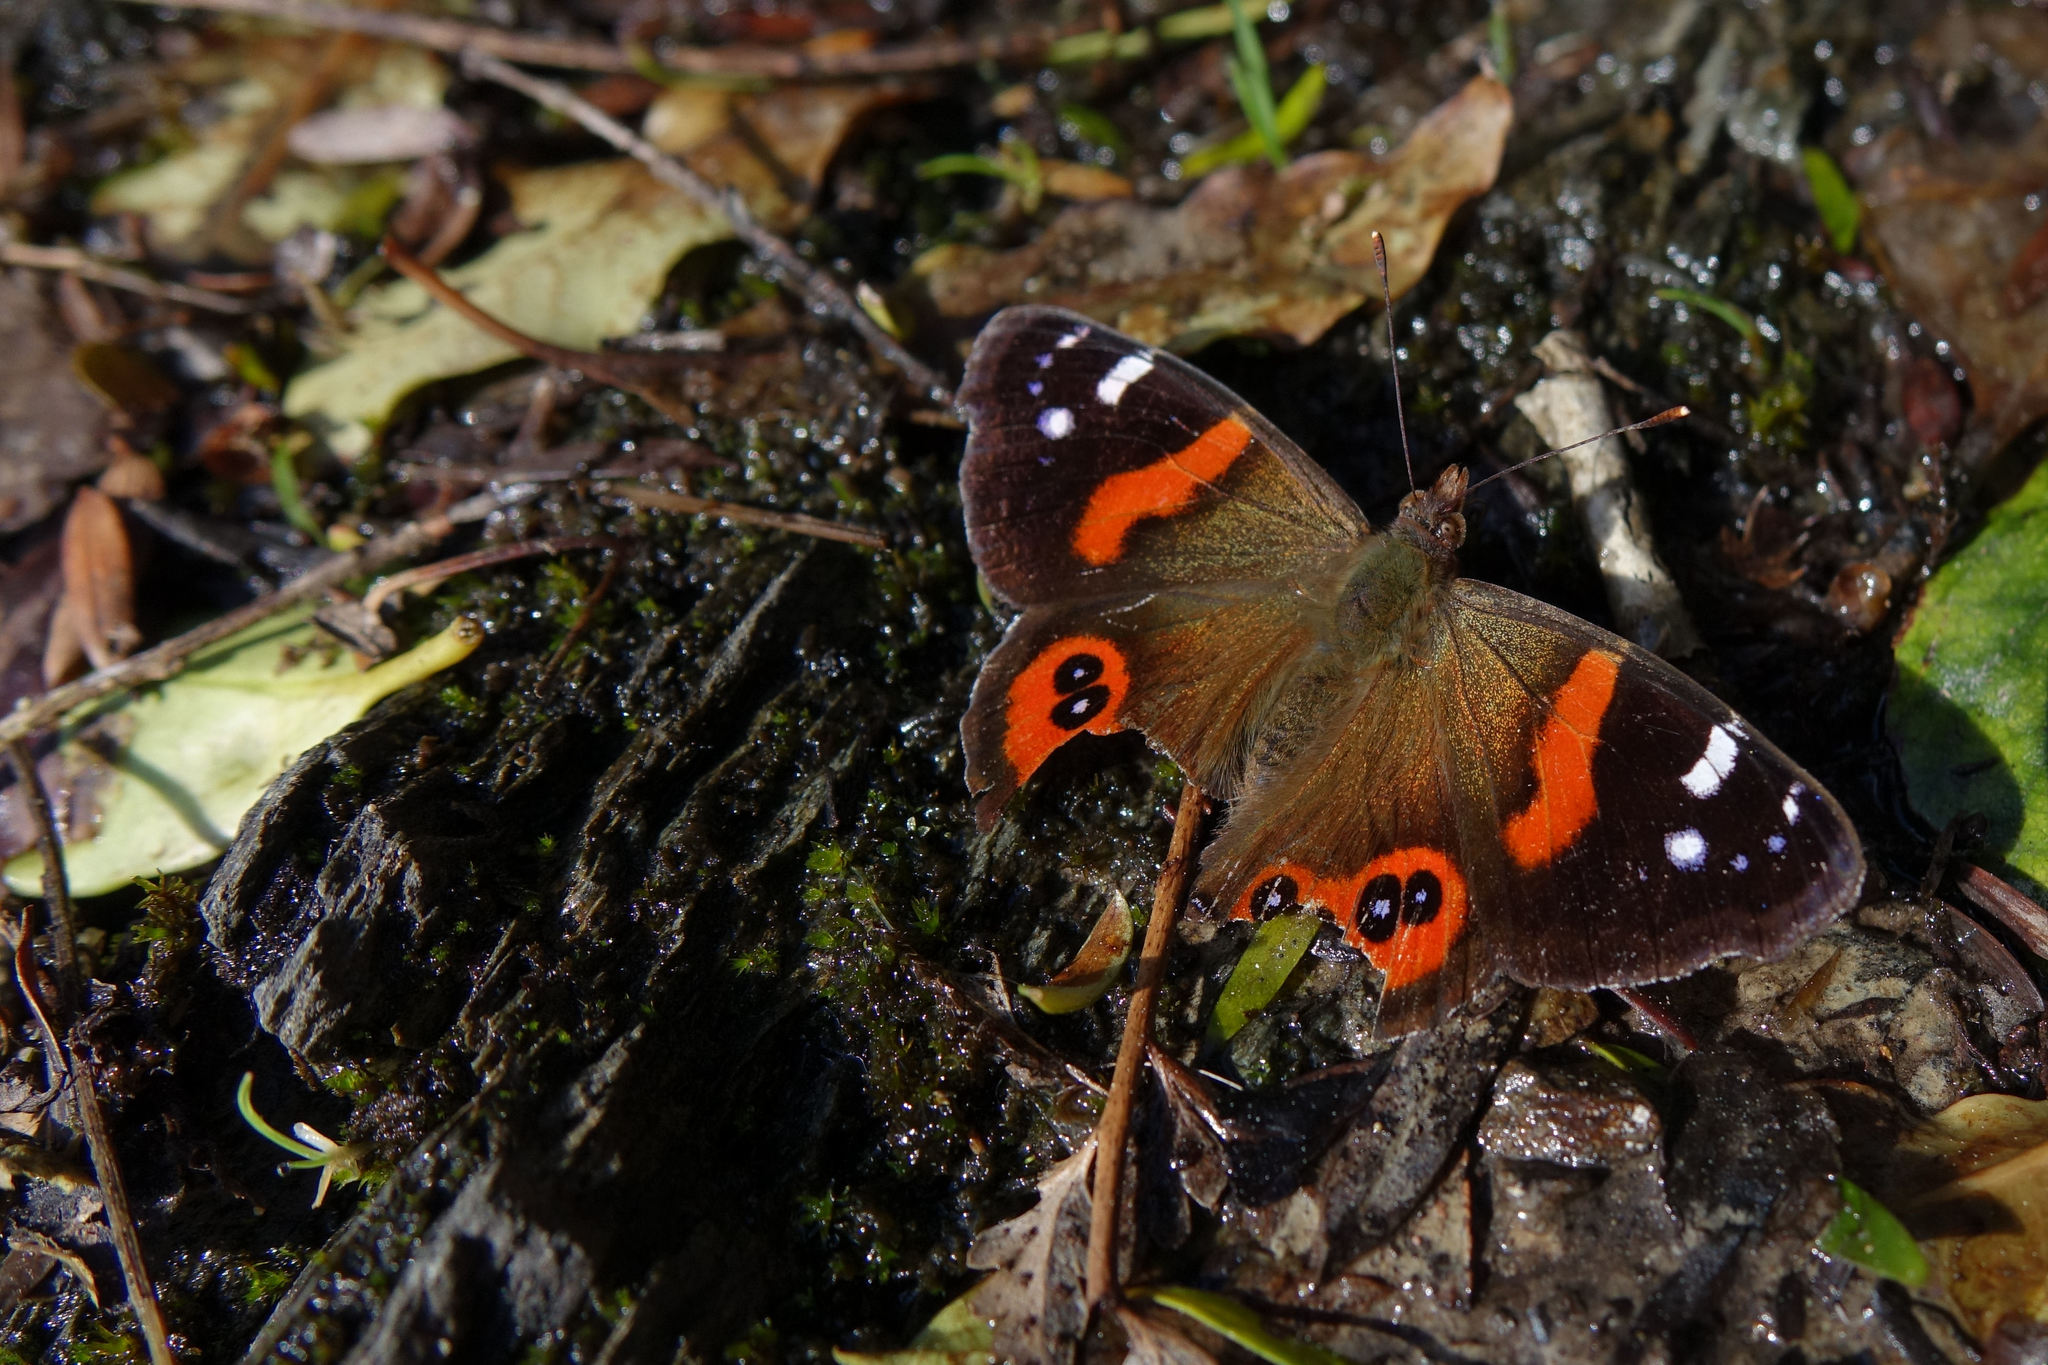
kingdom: Animalia
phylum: Arthropoda
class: Insecta
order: Lepidoptera
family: Nymphalidae
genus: Vanessa
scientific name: Vanessa gonerilla
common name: New zealand red admiral
